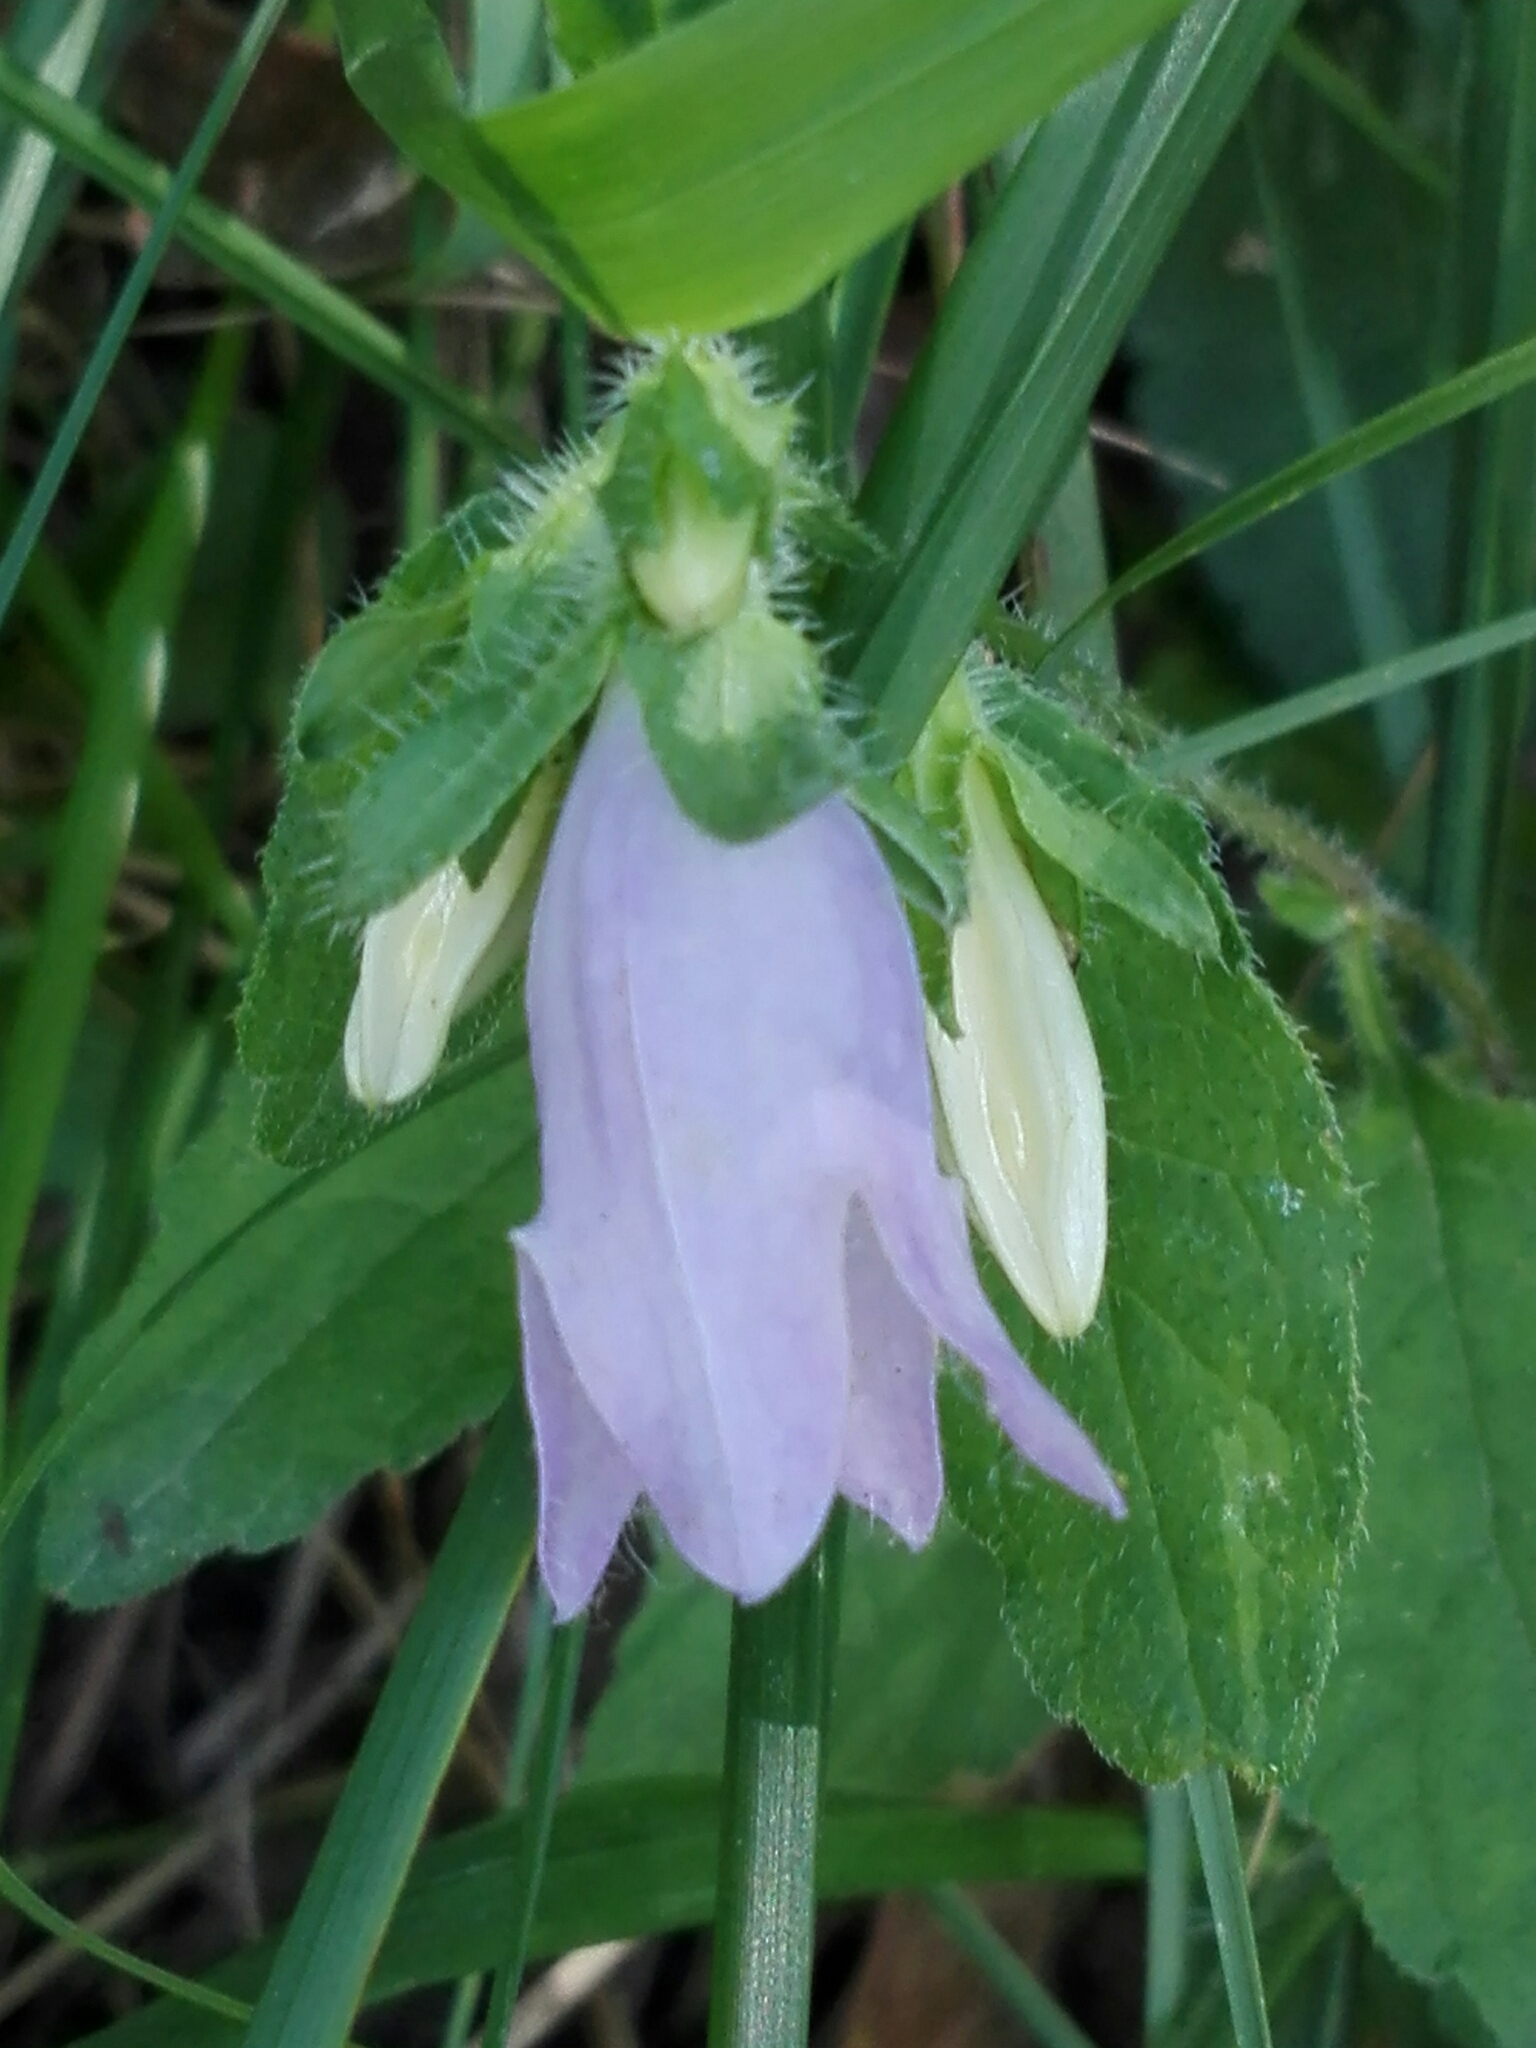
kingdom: Plantae
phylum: Tracheophyta
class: Magnoliopsida
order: Asterales
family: Campanulaceae
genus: Campanula
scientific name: Campanula trachelium
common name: Nettle-leaved bellflower
